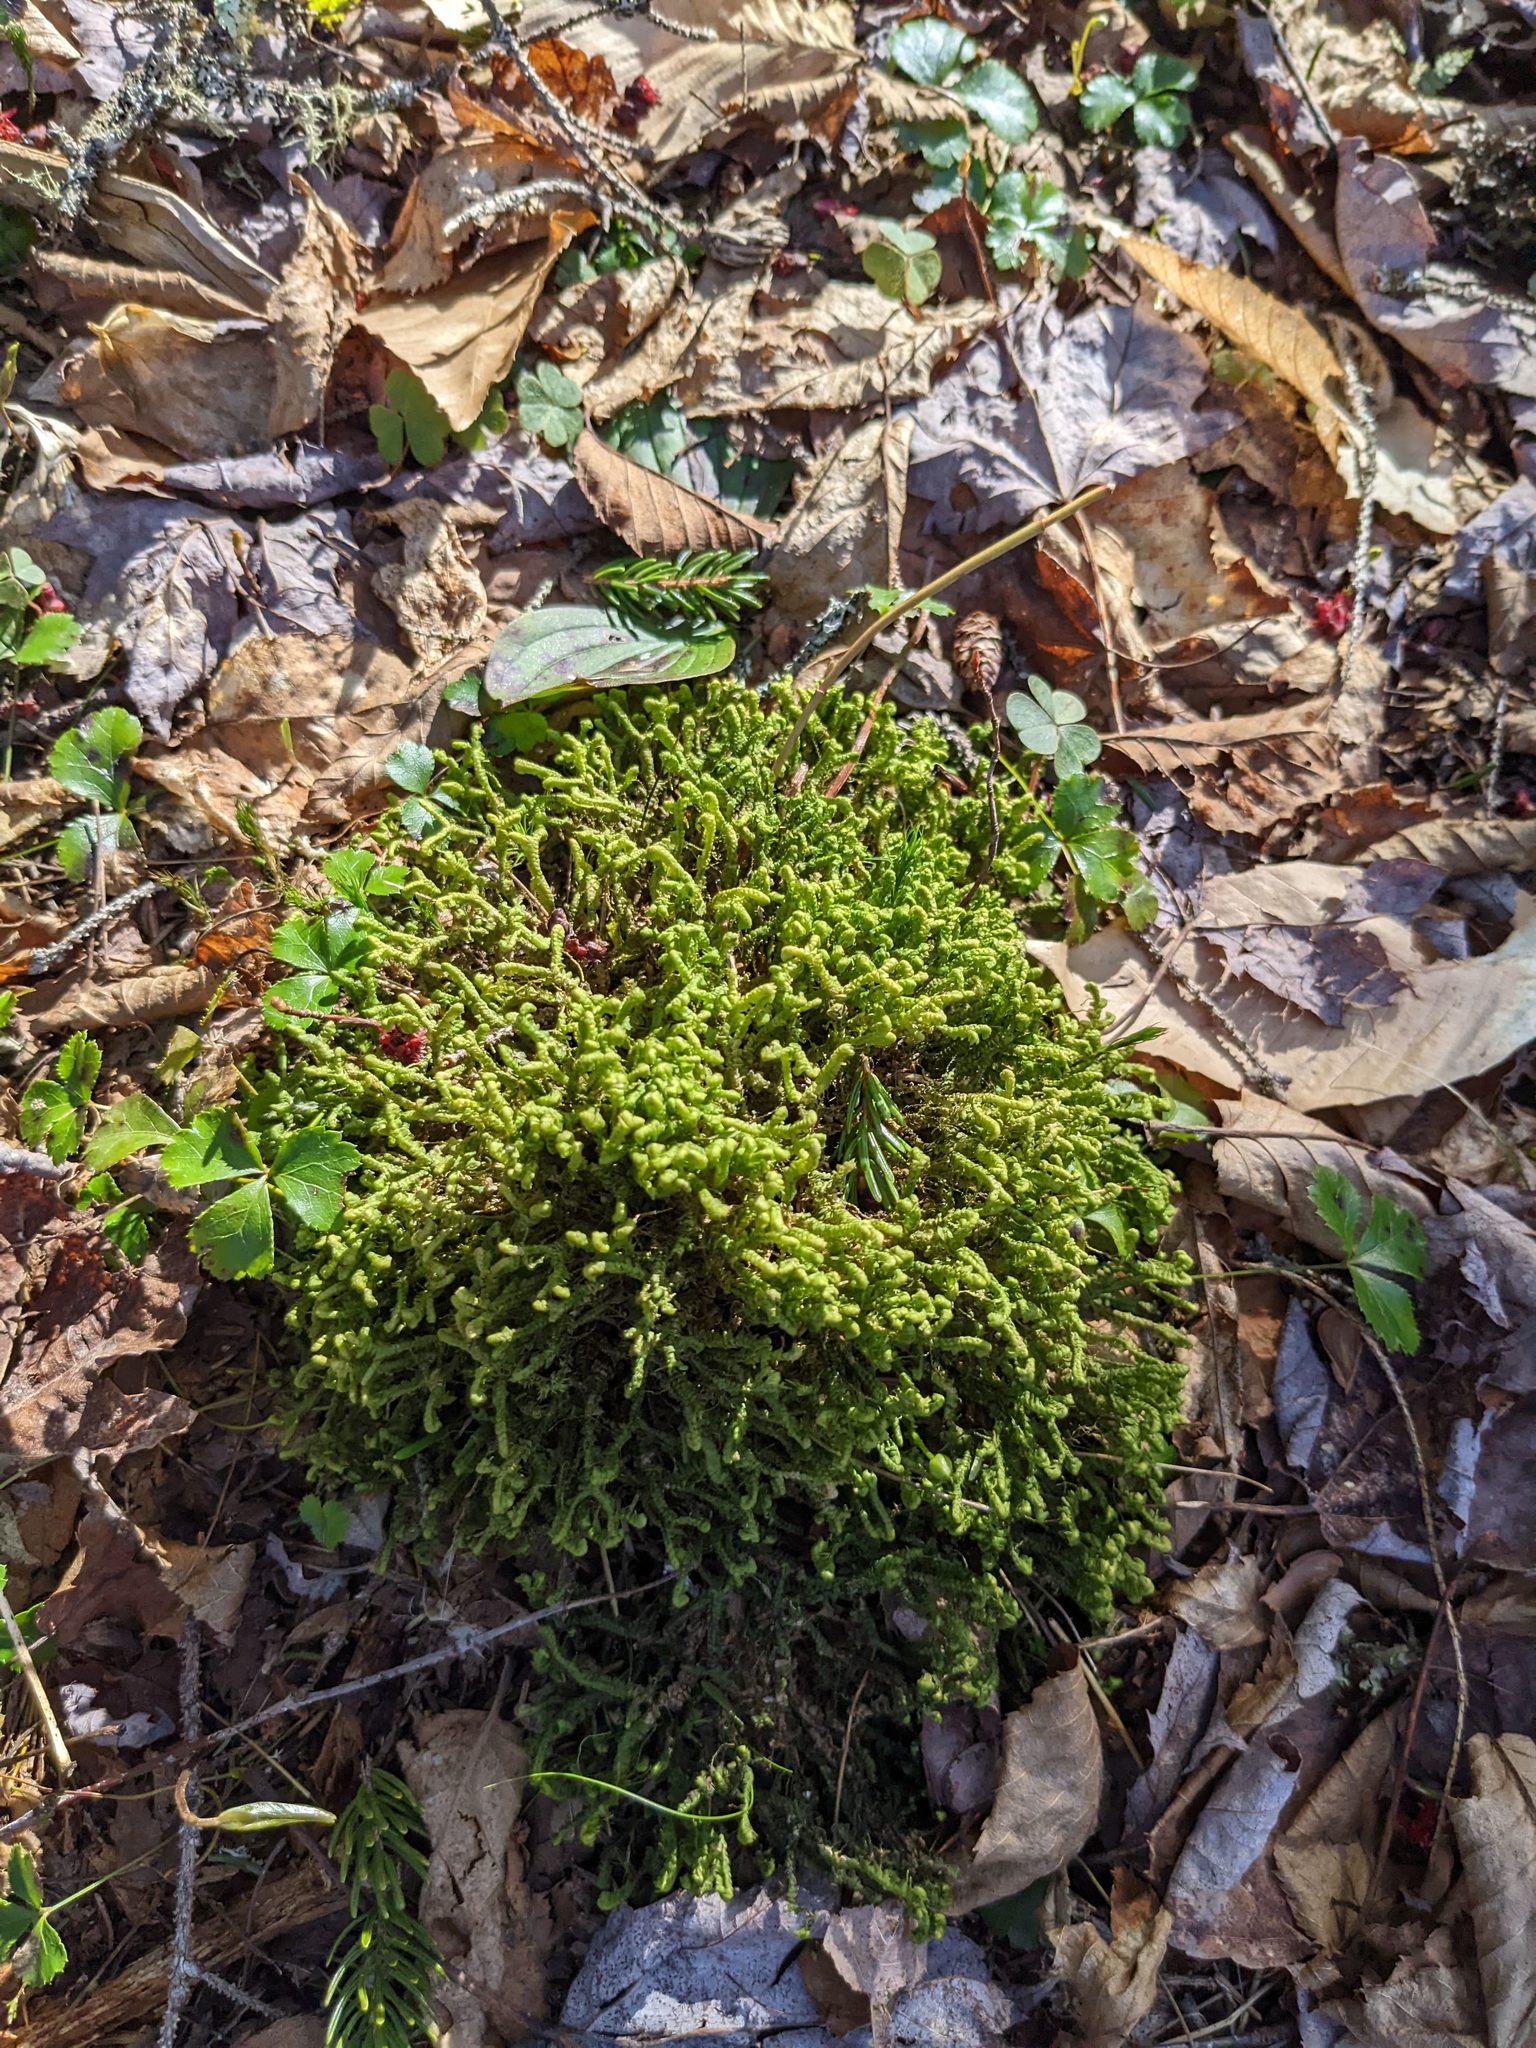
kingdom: Plantae
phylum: Marchantiophyta
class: Jungermanniopsida
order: Jungermanniales
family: Lepidoziaceae
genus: Bazzania
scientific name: Bazzania trilobata
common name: Three-lobed whipwort
